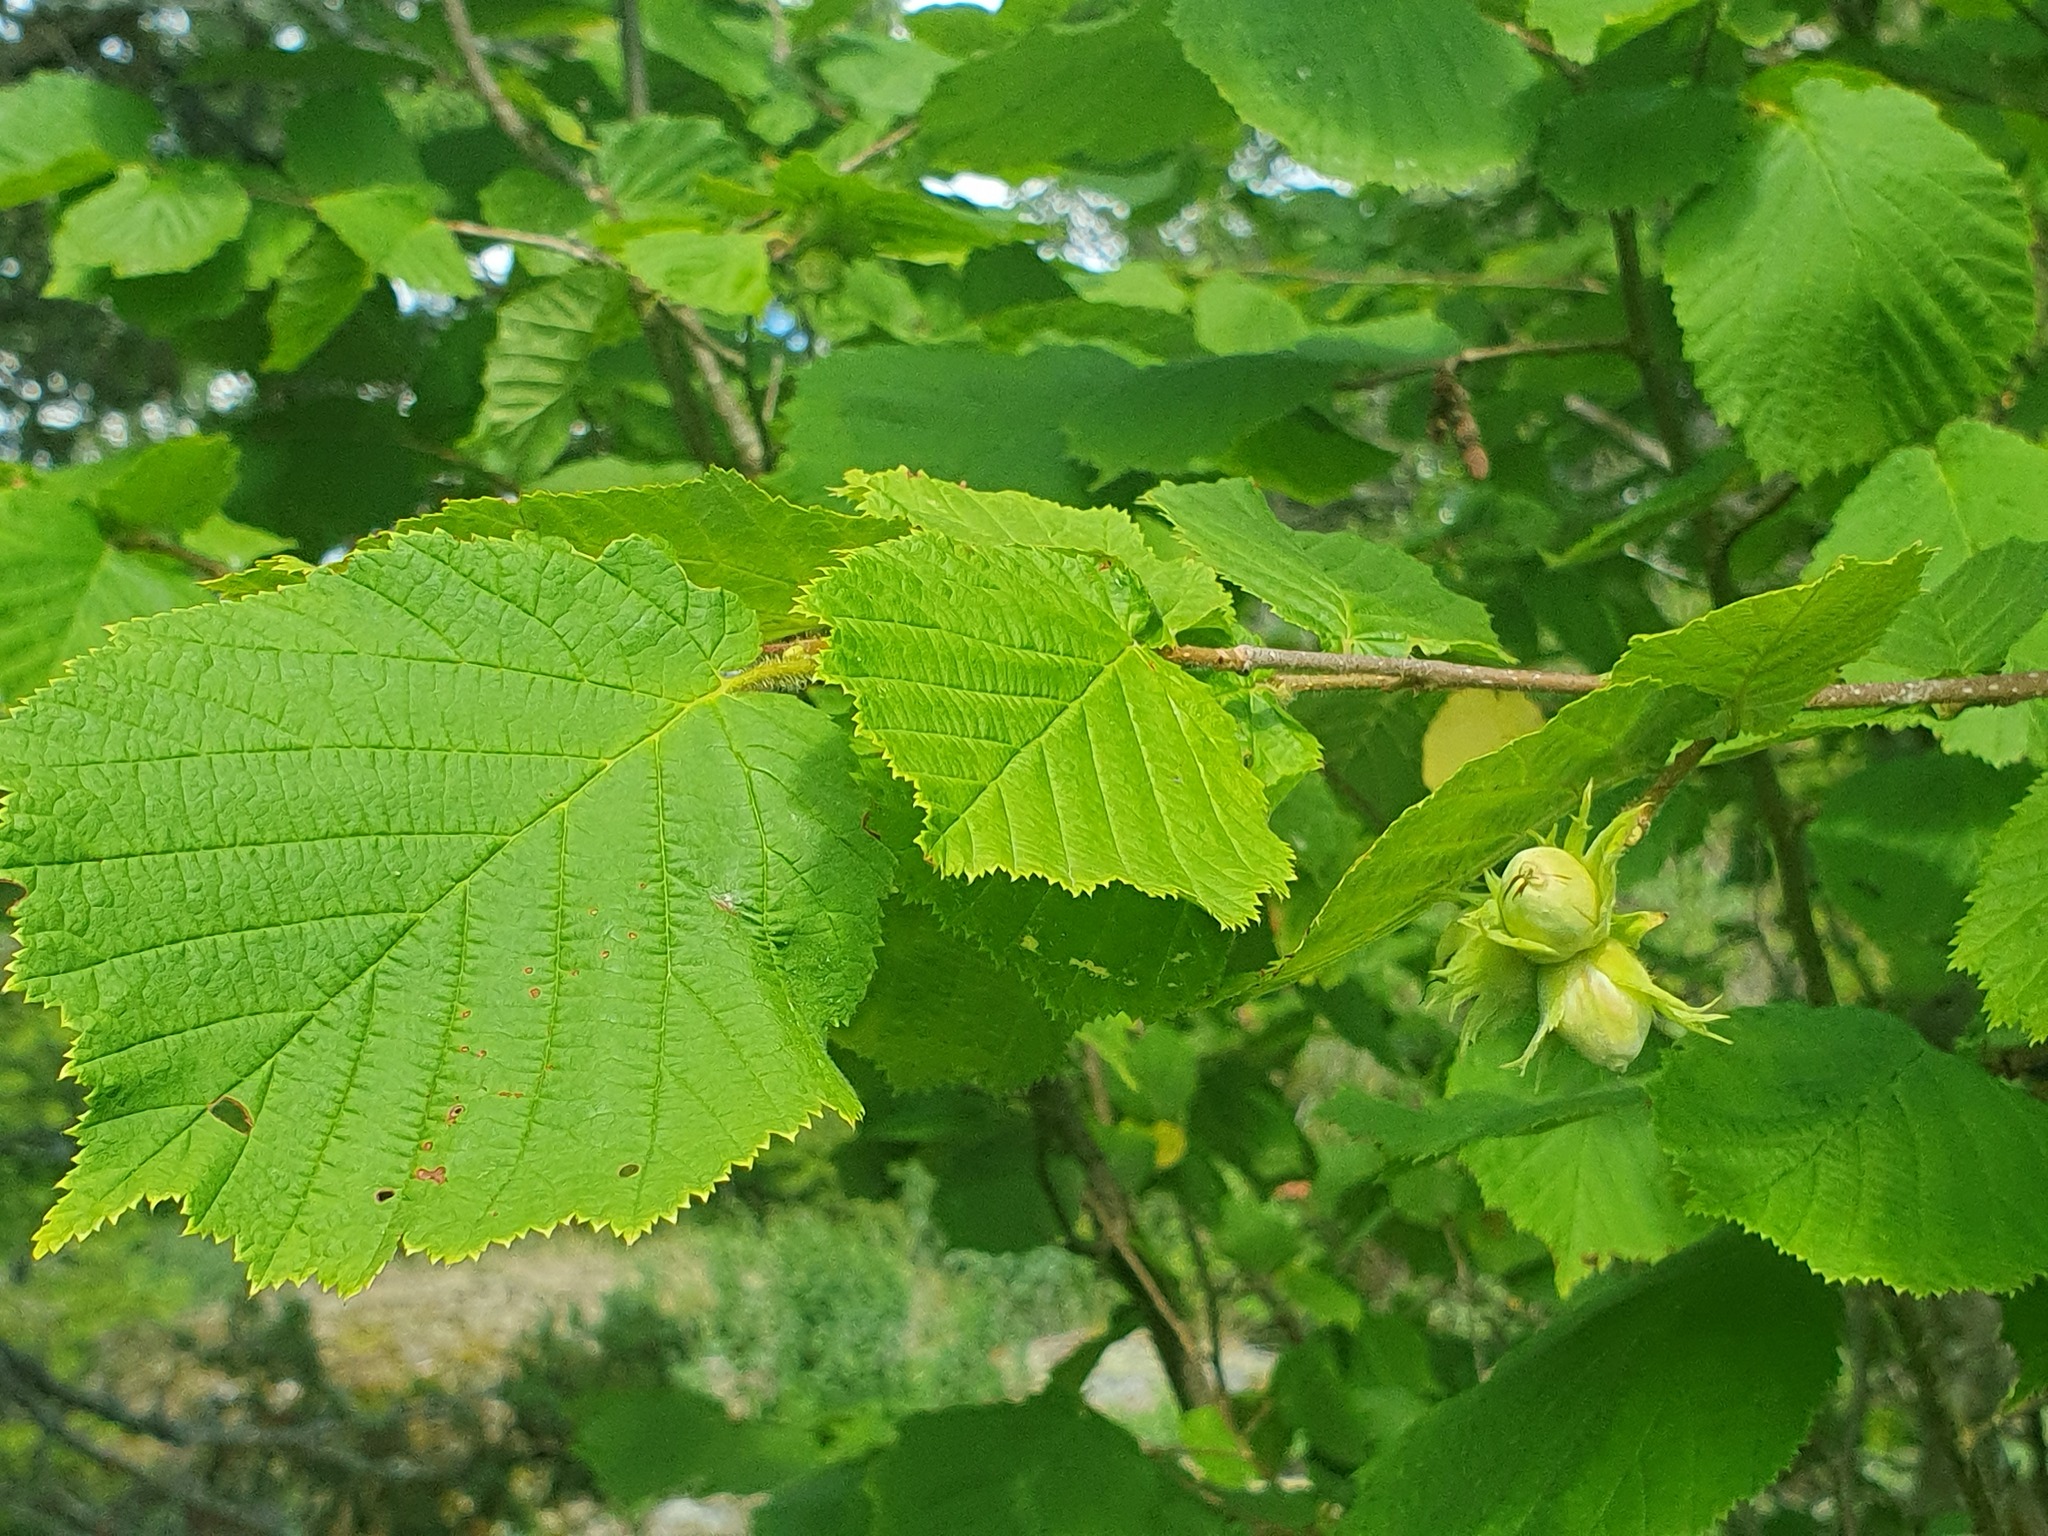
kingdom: Plantae
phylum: Tracheophyta
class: Magnoliopsida
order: Fagales
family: Betulaceae
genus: Corylus
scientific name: Corylus avellana
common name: European hazel
